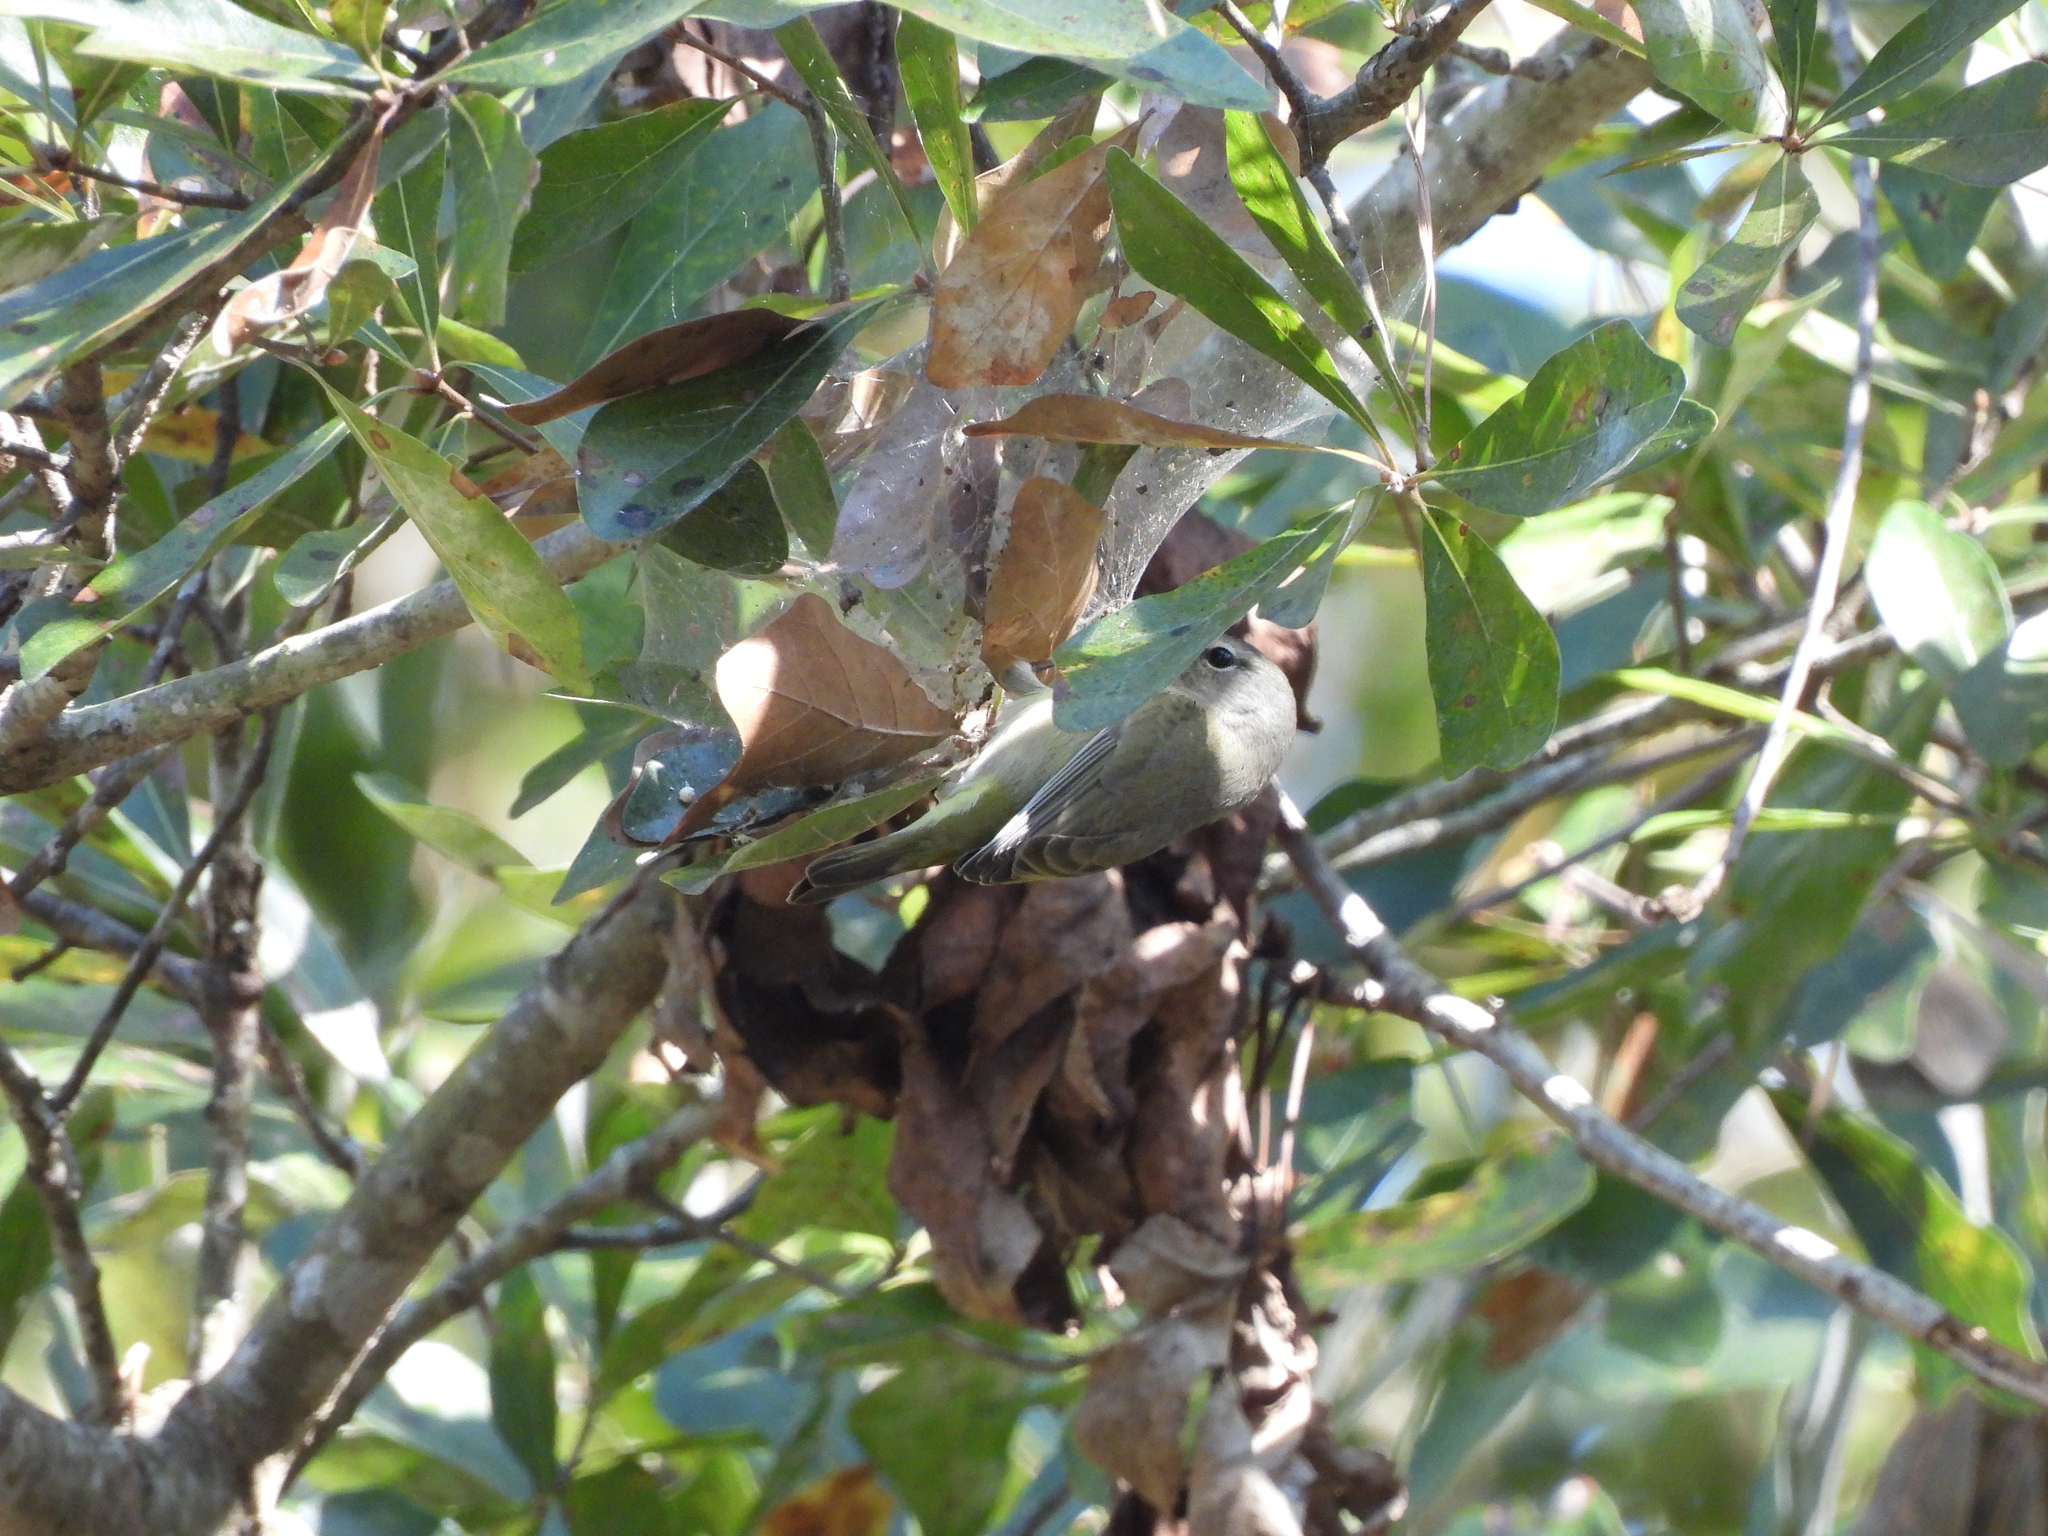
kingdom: Animalia
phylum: Chordata
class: Aves
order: Passeriformes
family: Parulidae
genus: Leiothlypis
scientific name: Leiothlypis celata
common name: Orange-crowned warbler
